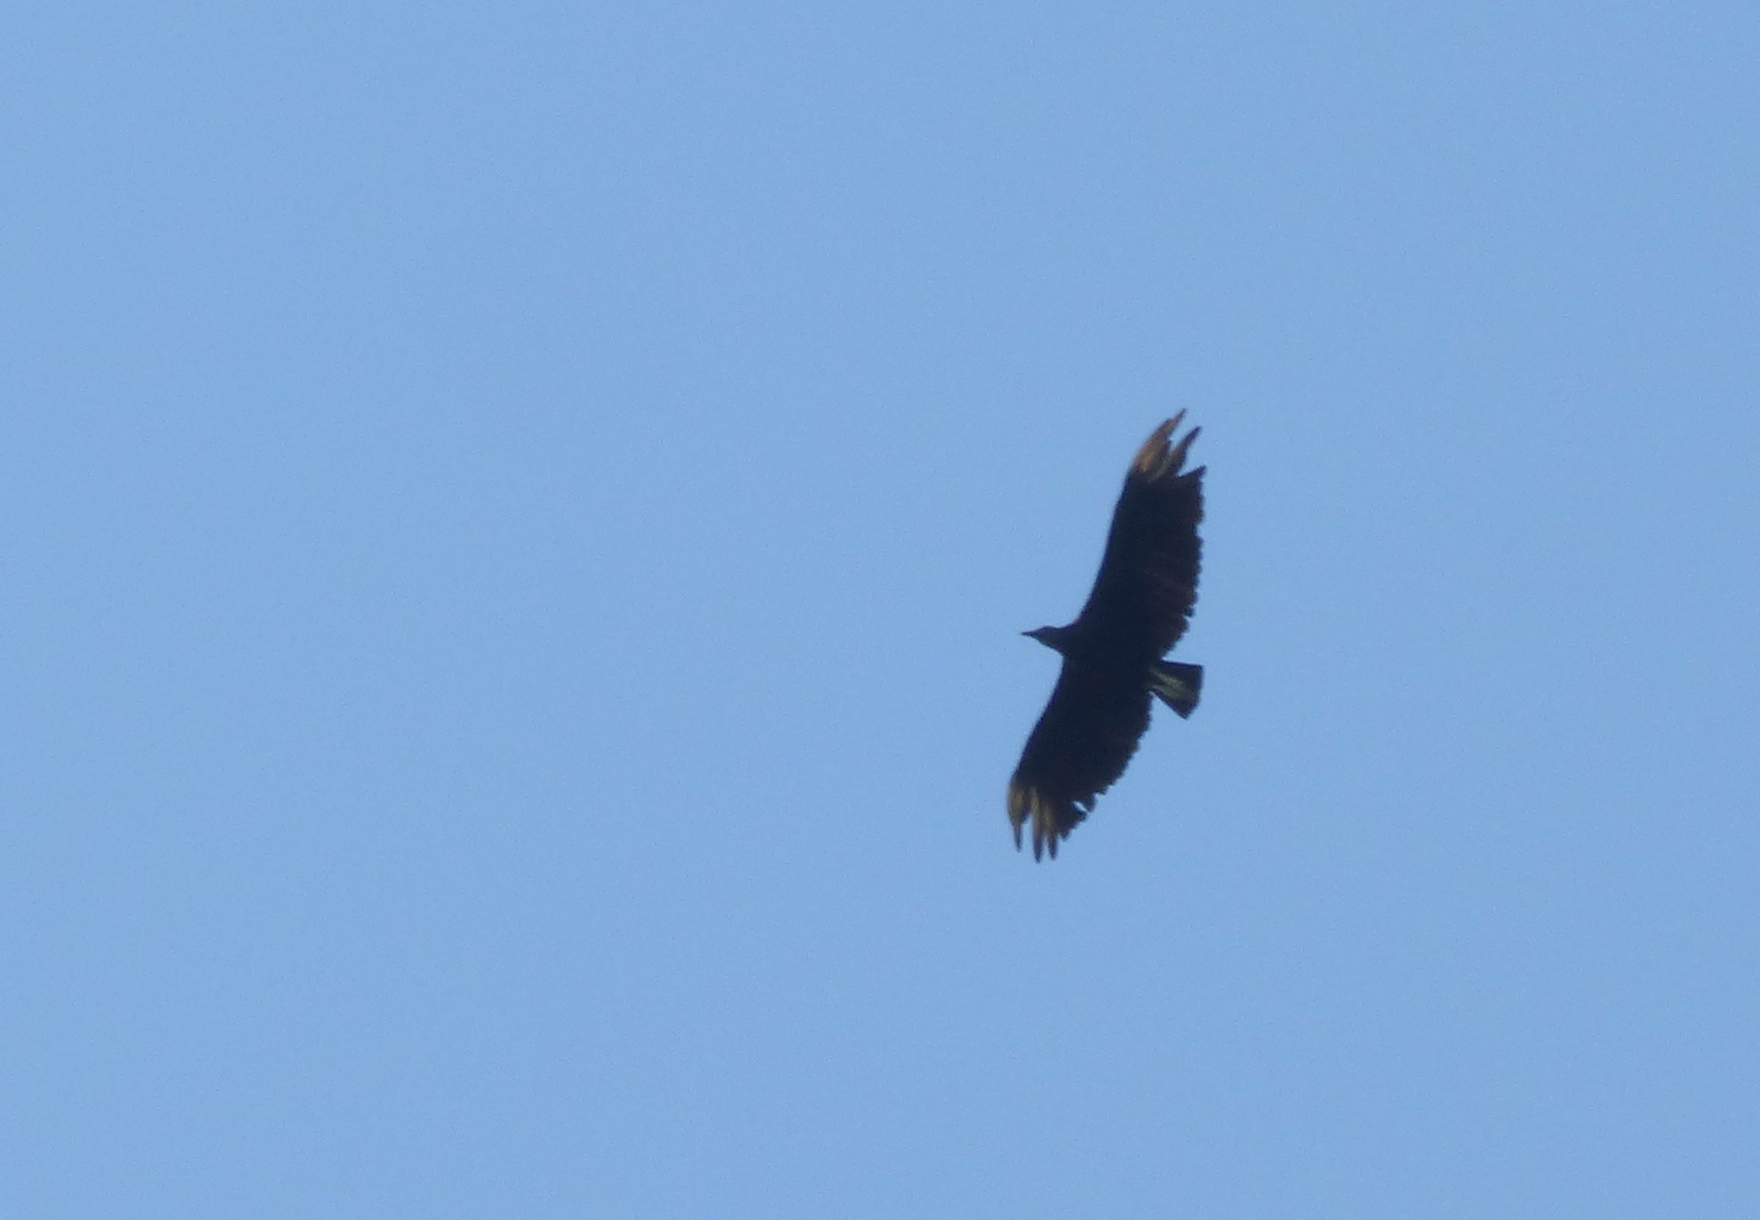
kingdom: Animalia
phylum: Chordata
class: Aves
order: Accipitriformes
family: Cathartidae
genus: Coragyps
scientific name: Coragyps atratus
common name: Black vulture
